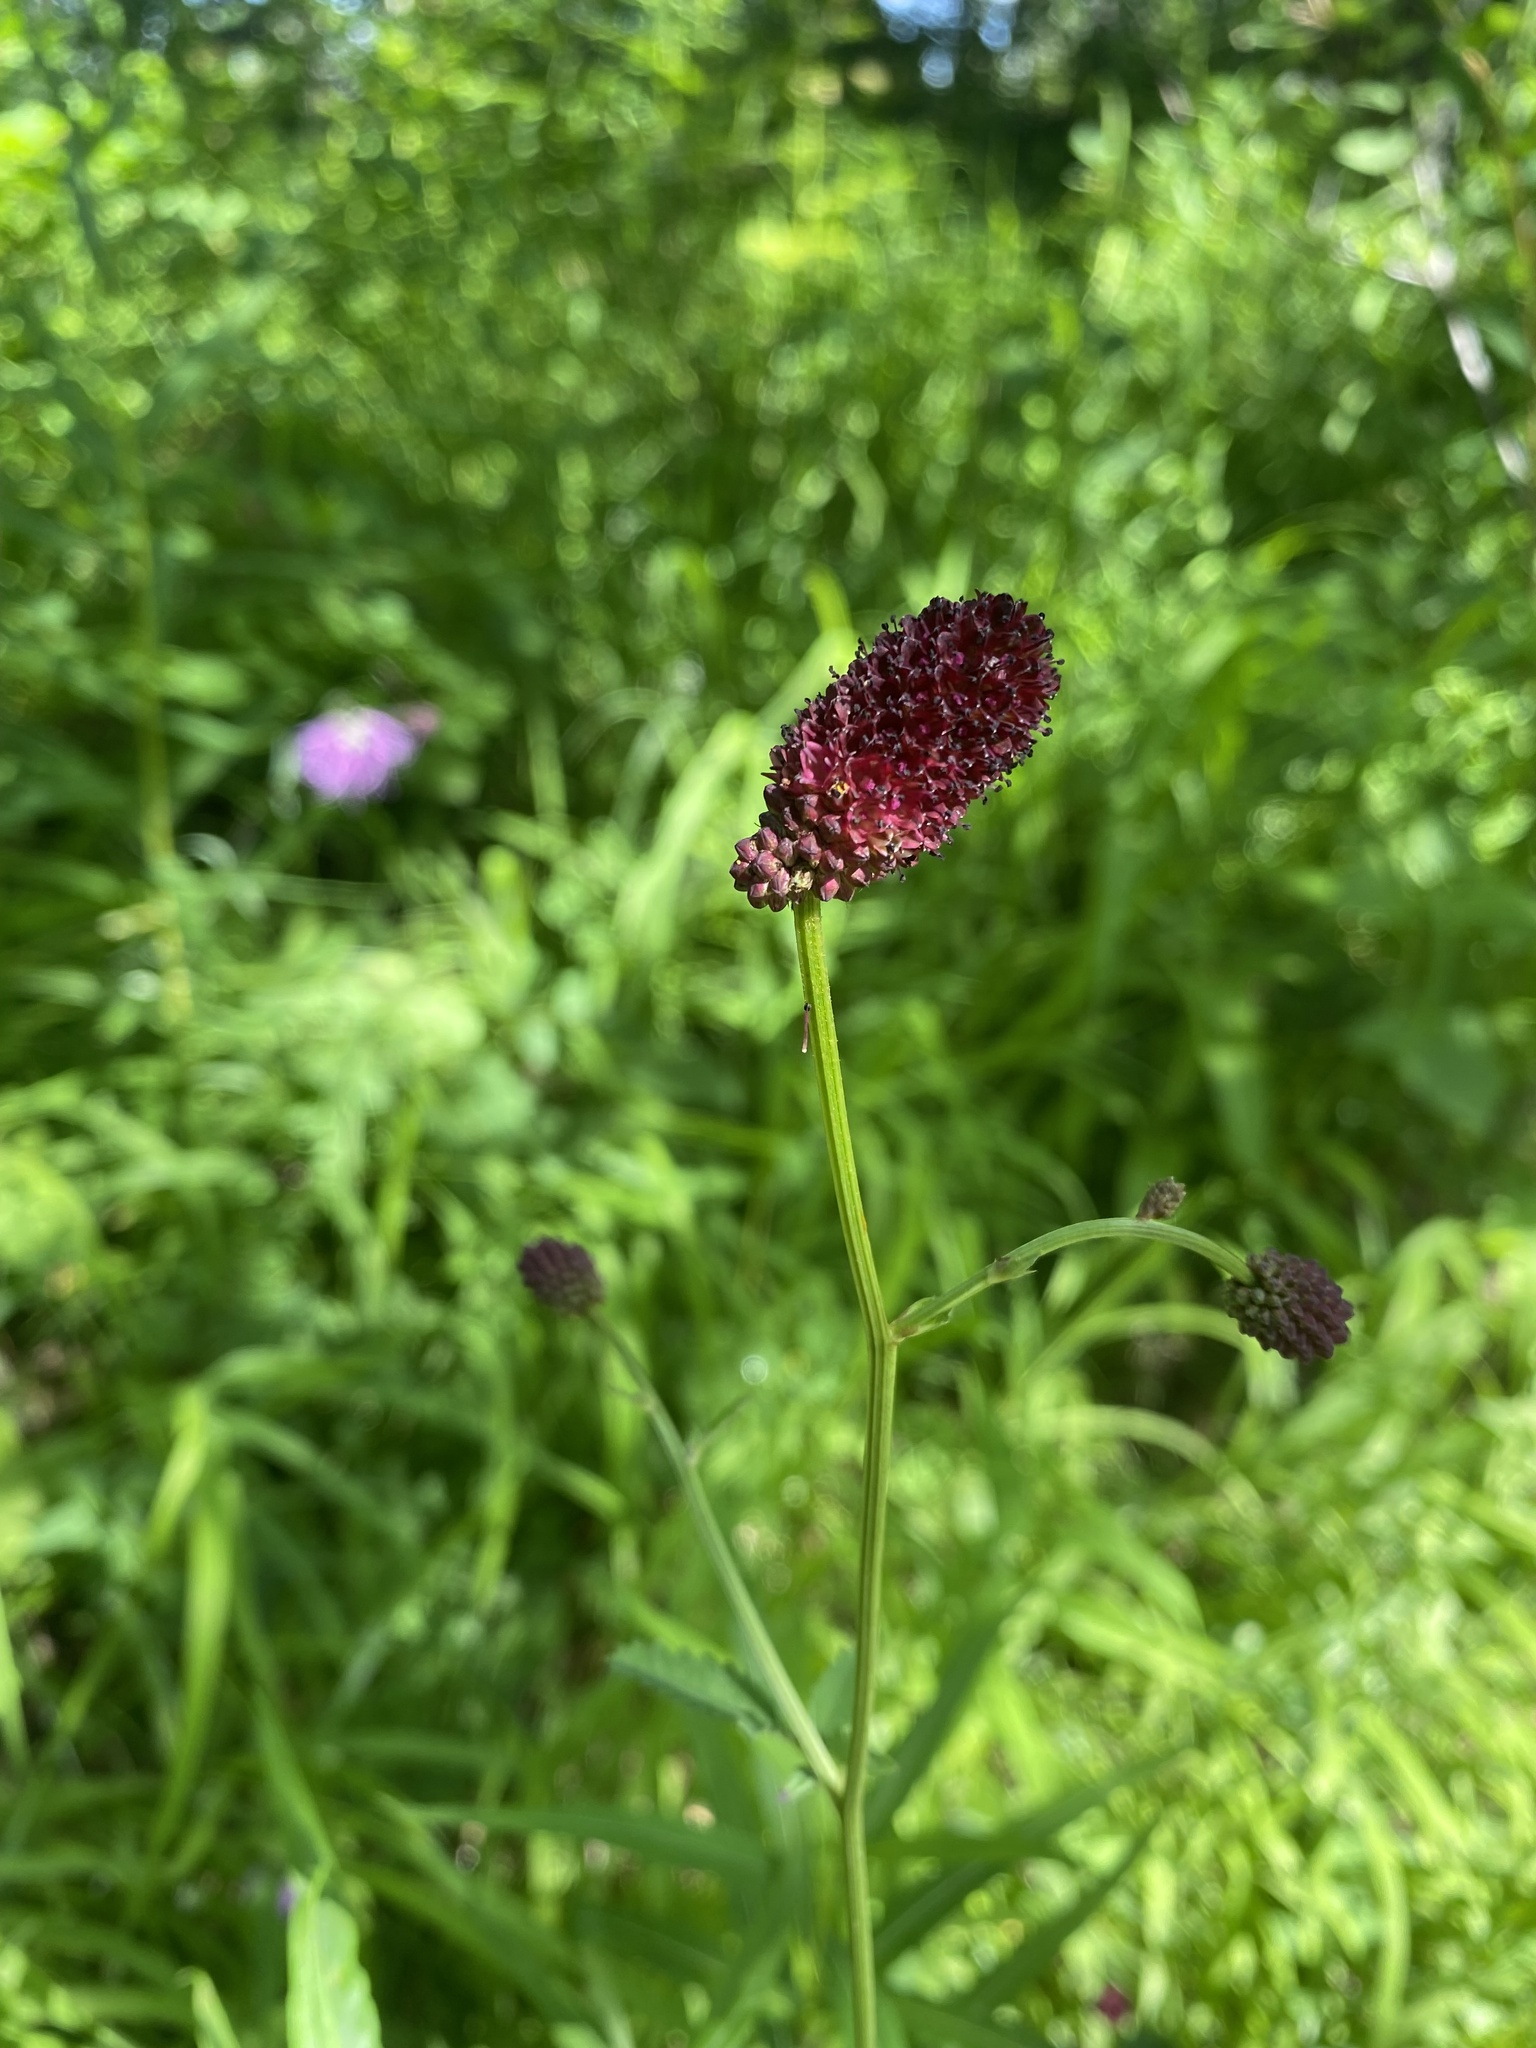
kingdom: Plantae
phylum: Tracheophyta
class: Magnoliopsida
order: Rosales
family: Rosaceae
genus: Sanguisorba
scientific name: Sanguisorba officinalis
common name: Great burnet
